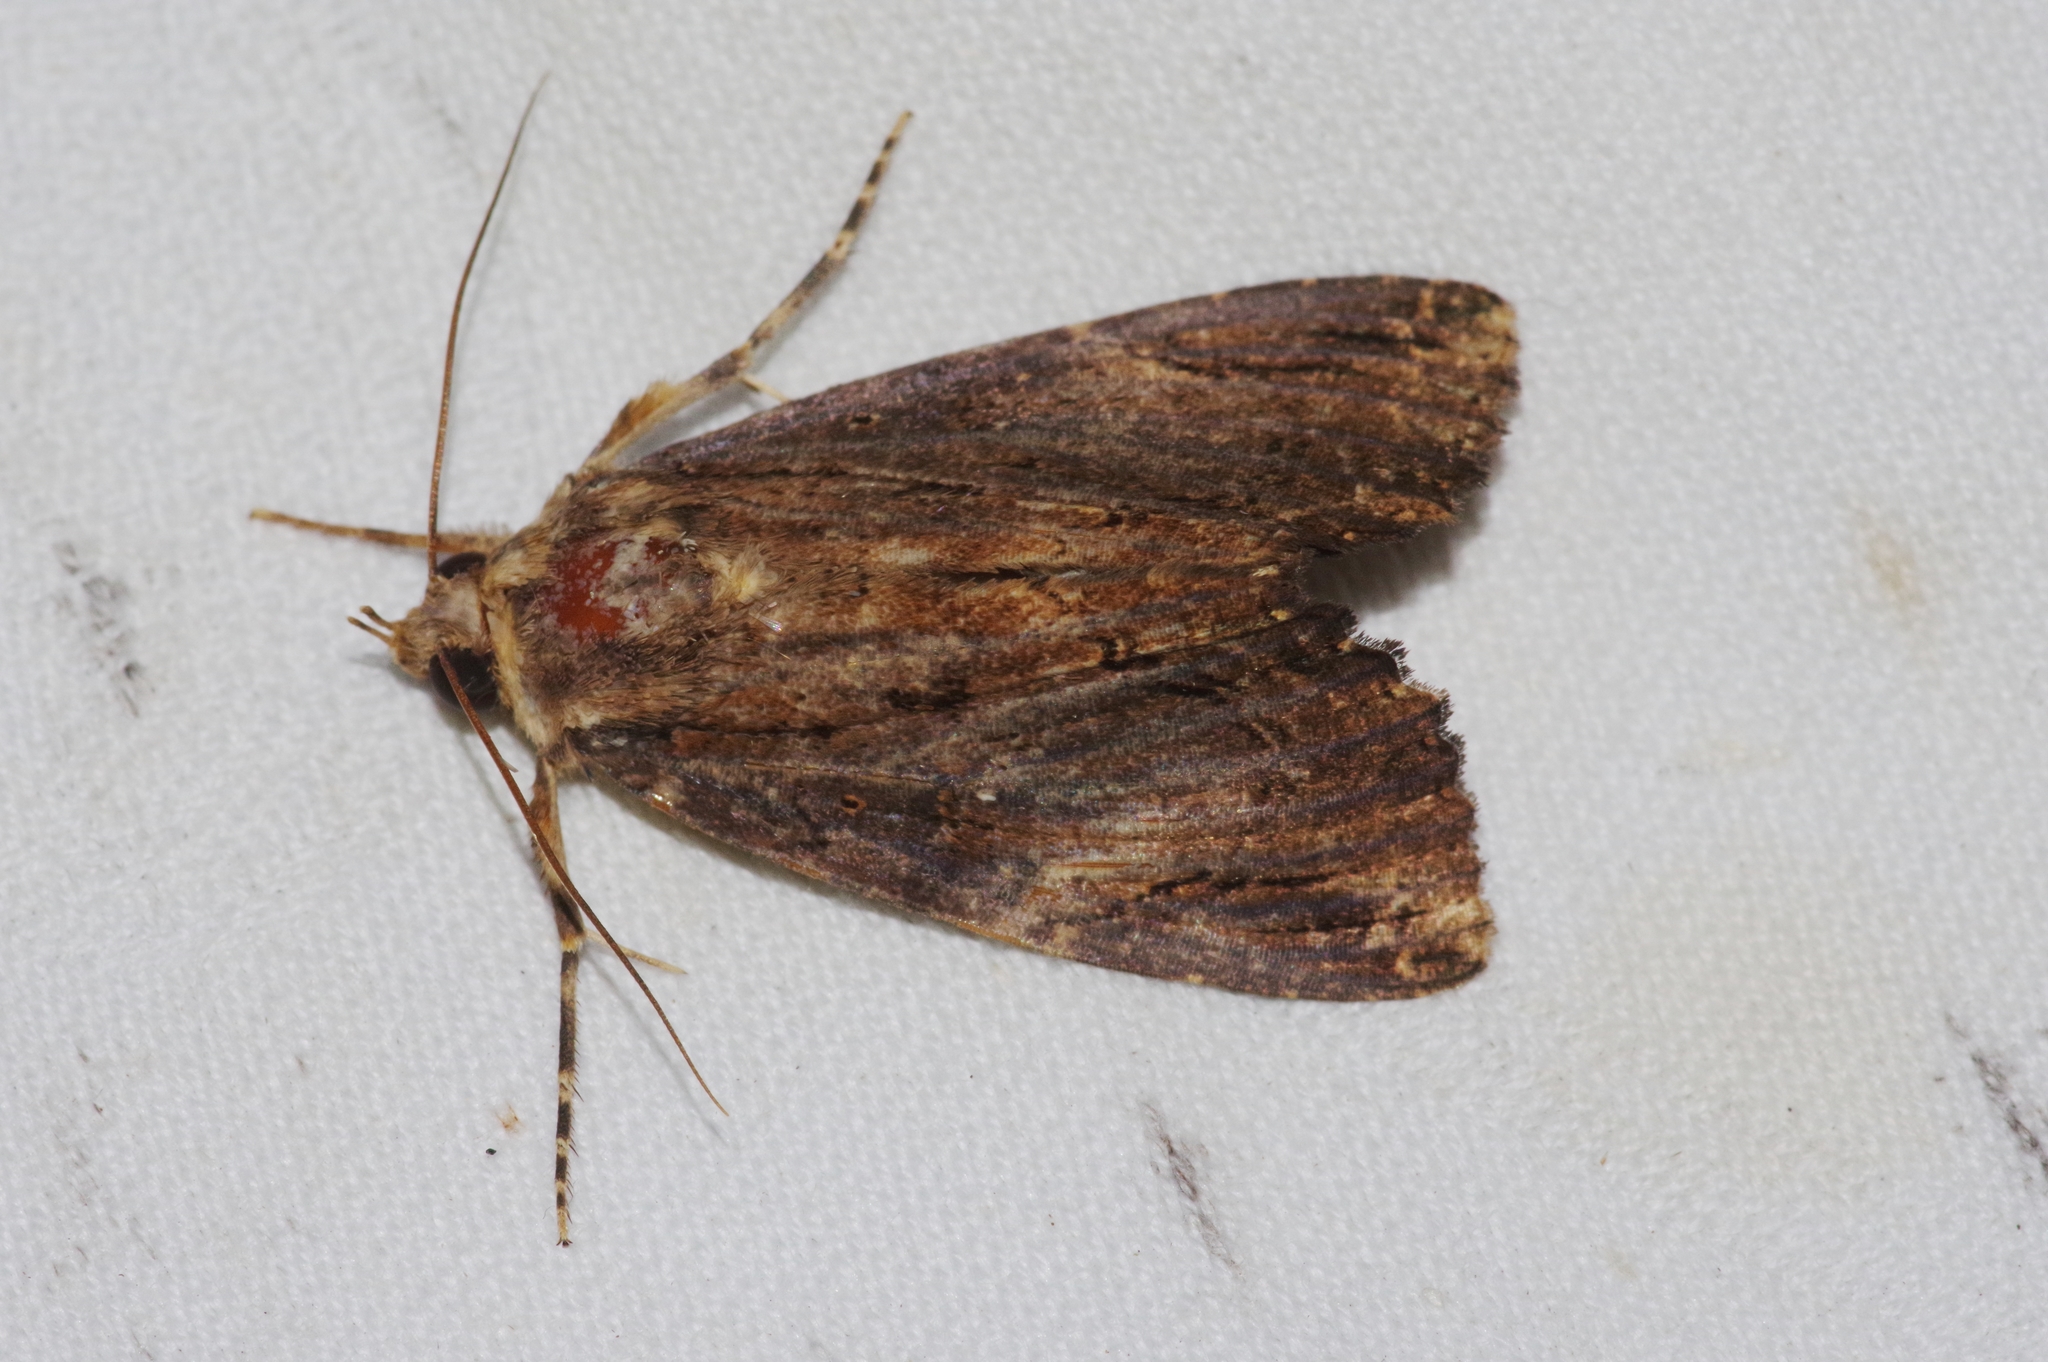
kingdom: Animalia
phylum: Arthropoda
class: Insecta
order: Lepidoptera
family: Erebidae
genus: Ercheia
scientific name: Ercheia dubia
